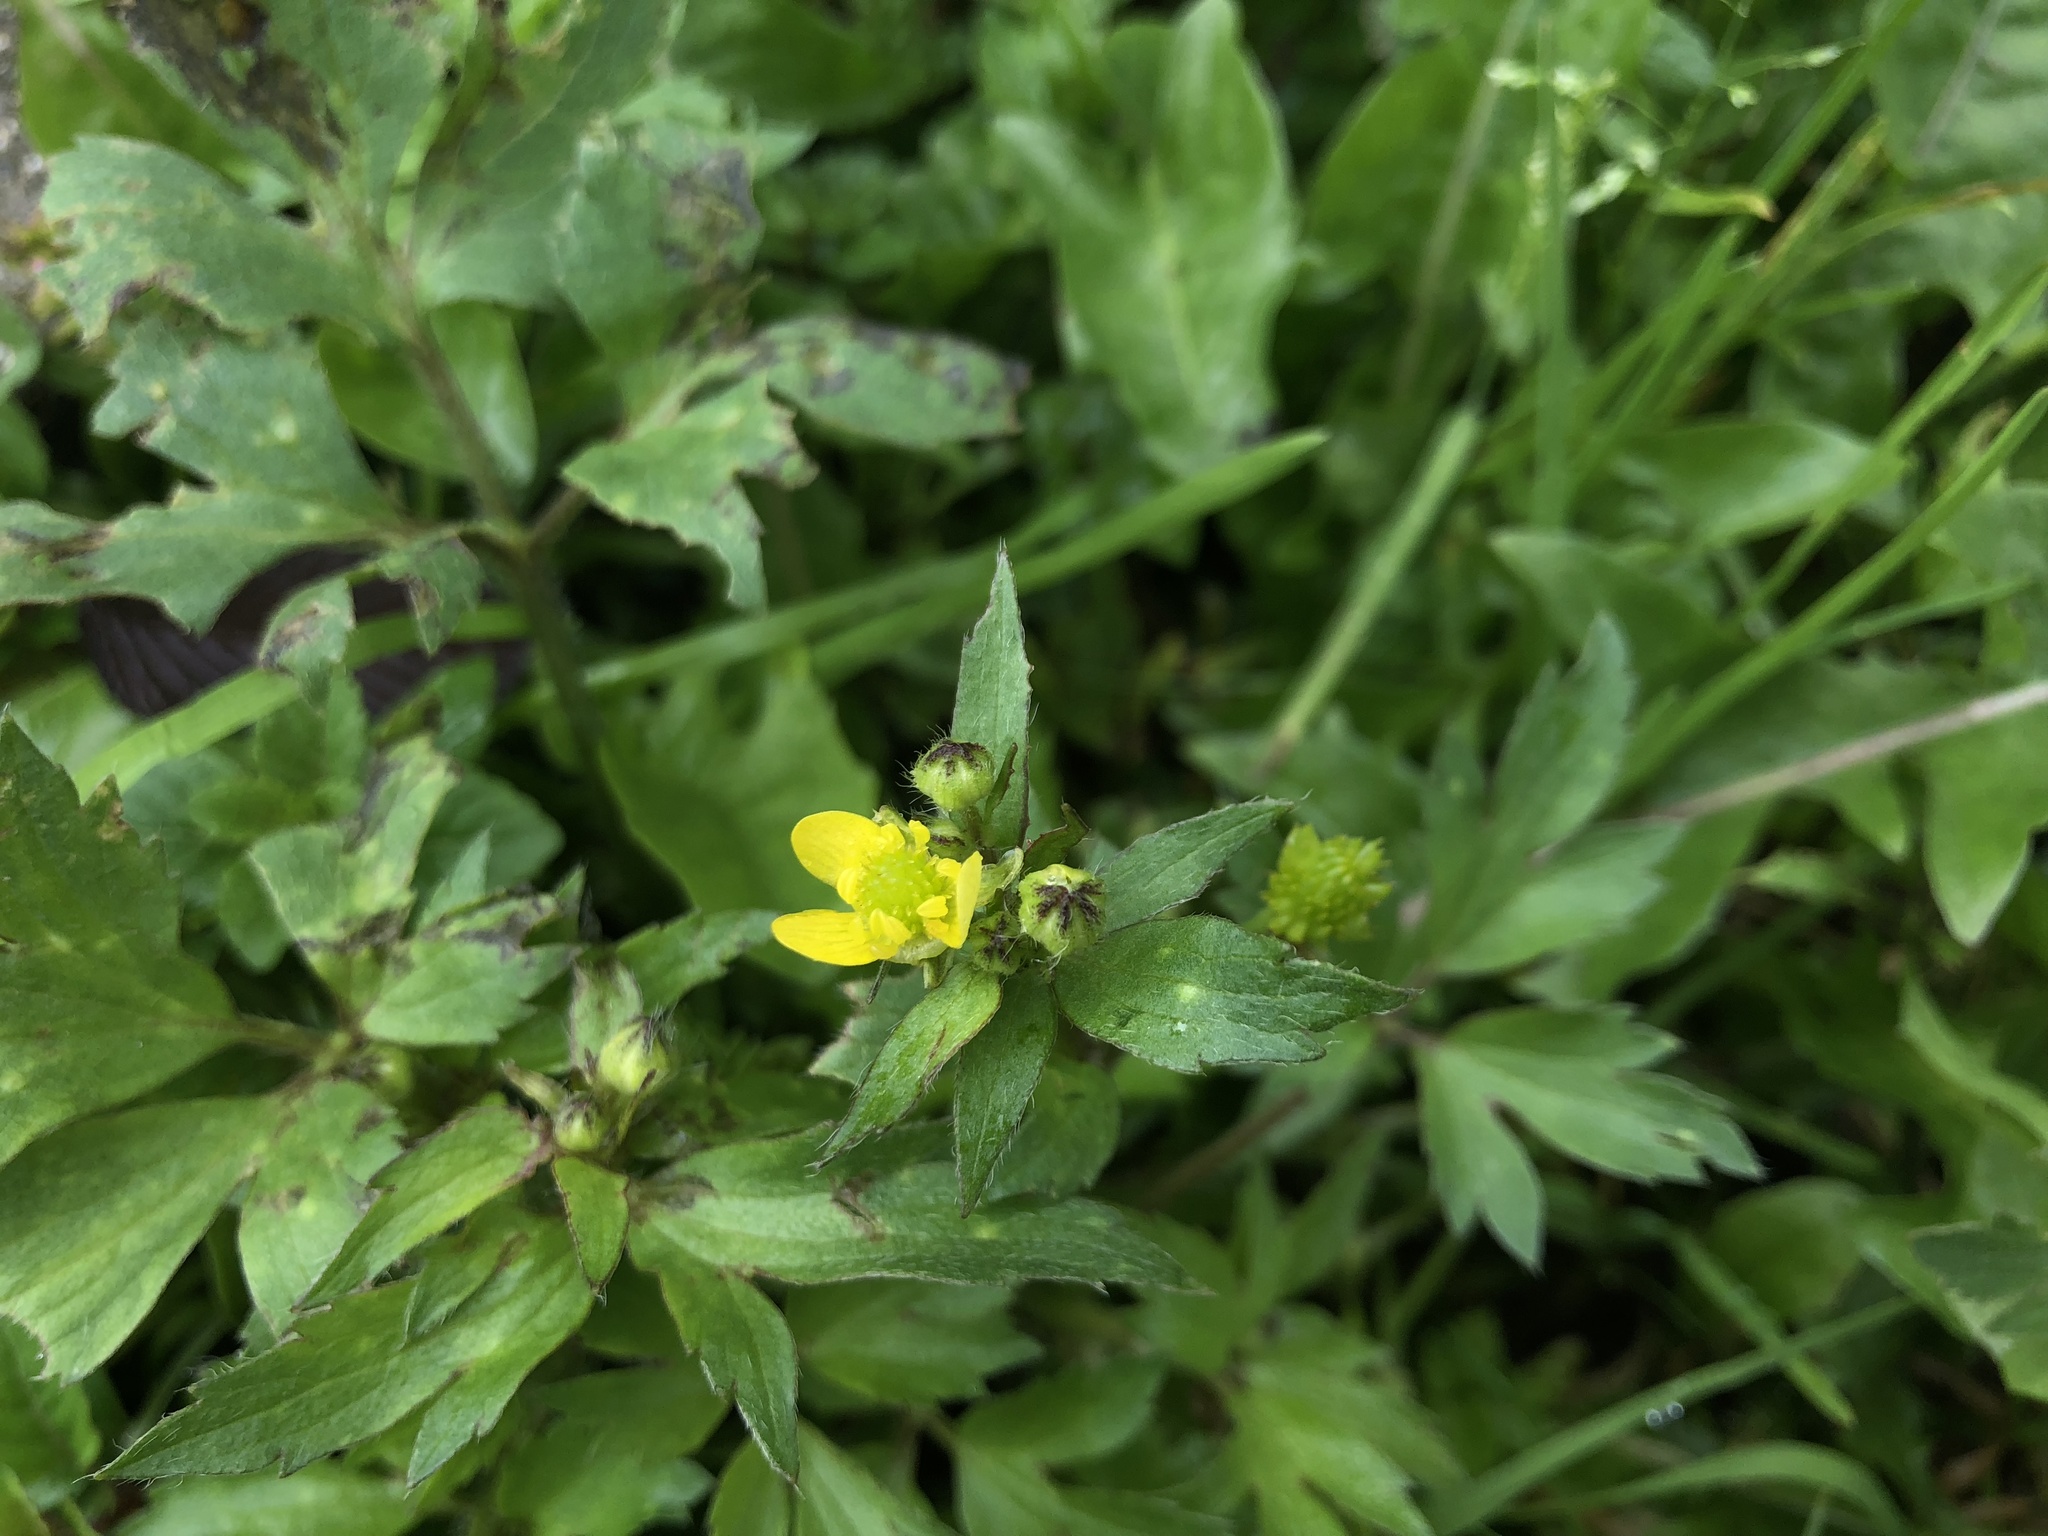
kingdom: Plantae
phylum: Tracheophyta
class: Magnoliopsida
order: Ranunculales
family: Ranunculaceae
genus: Ranunculus
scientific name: Ranunculus cantoniensis
